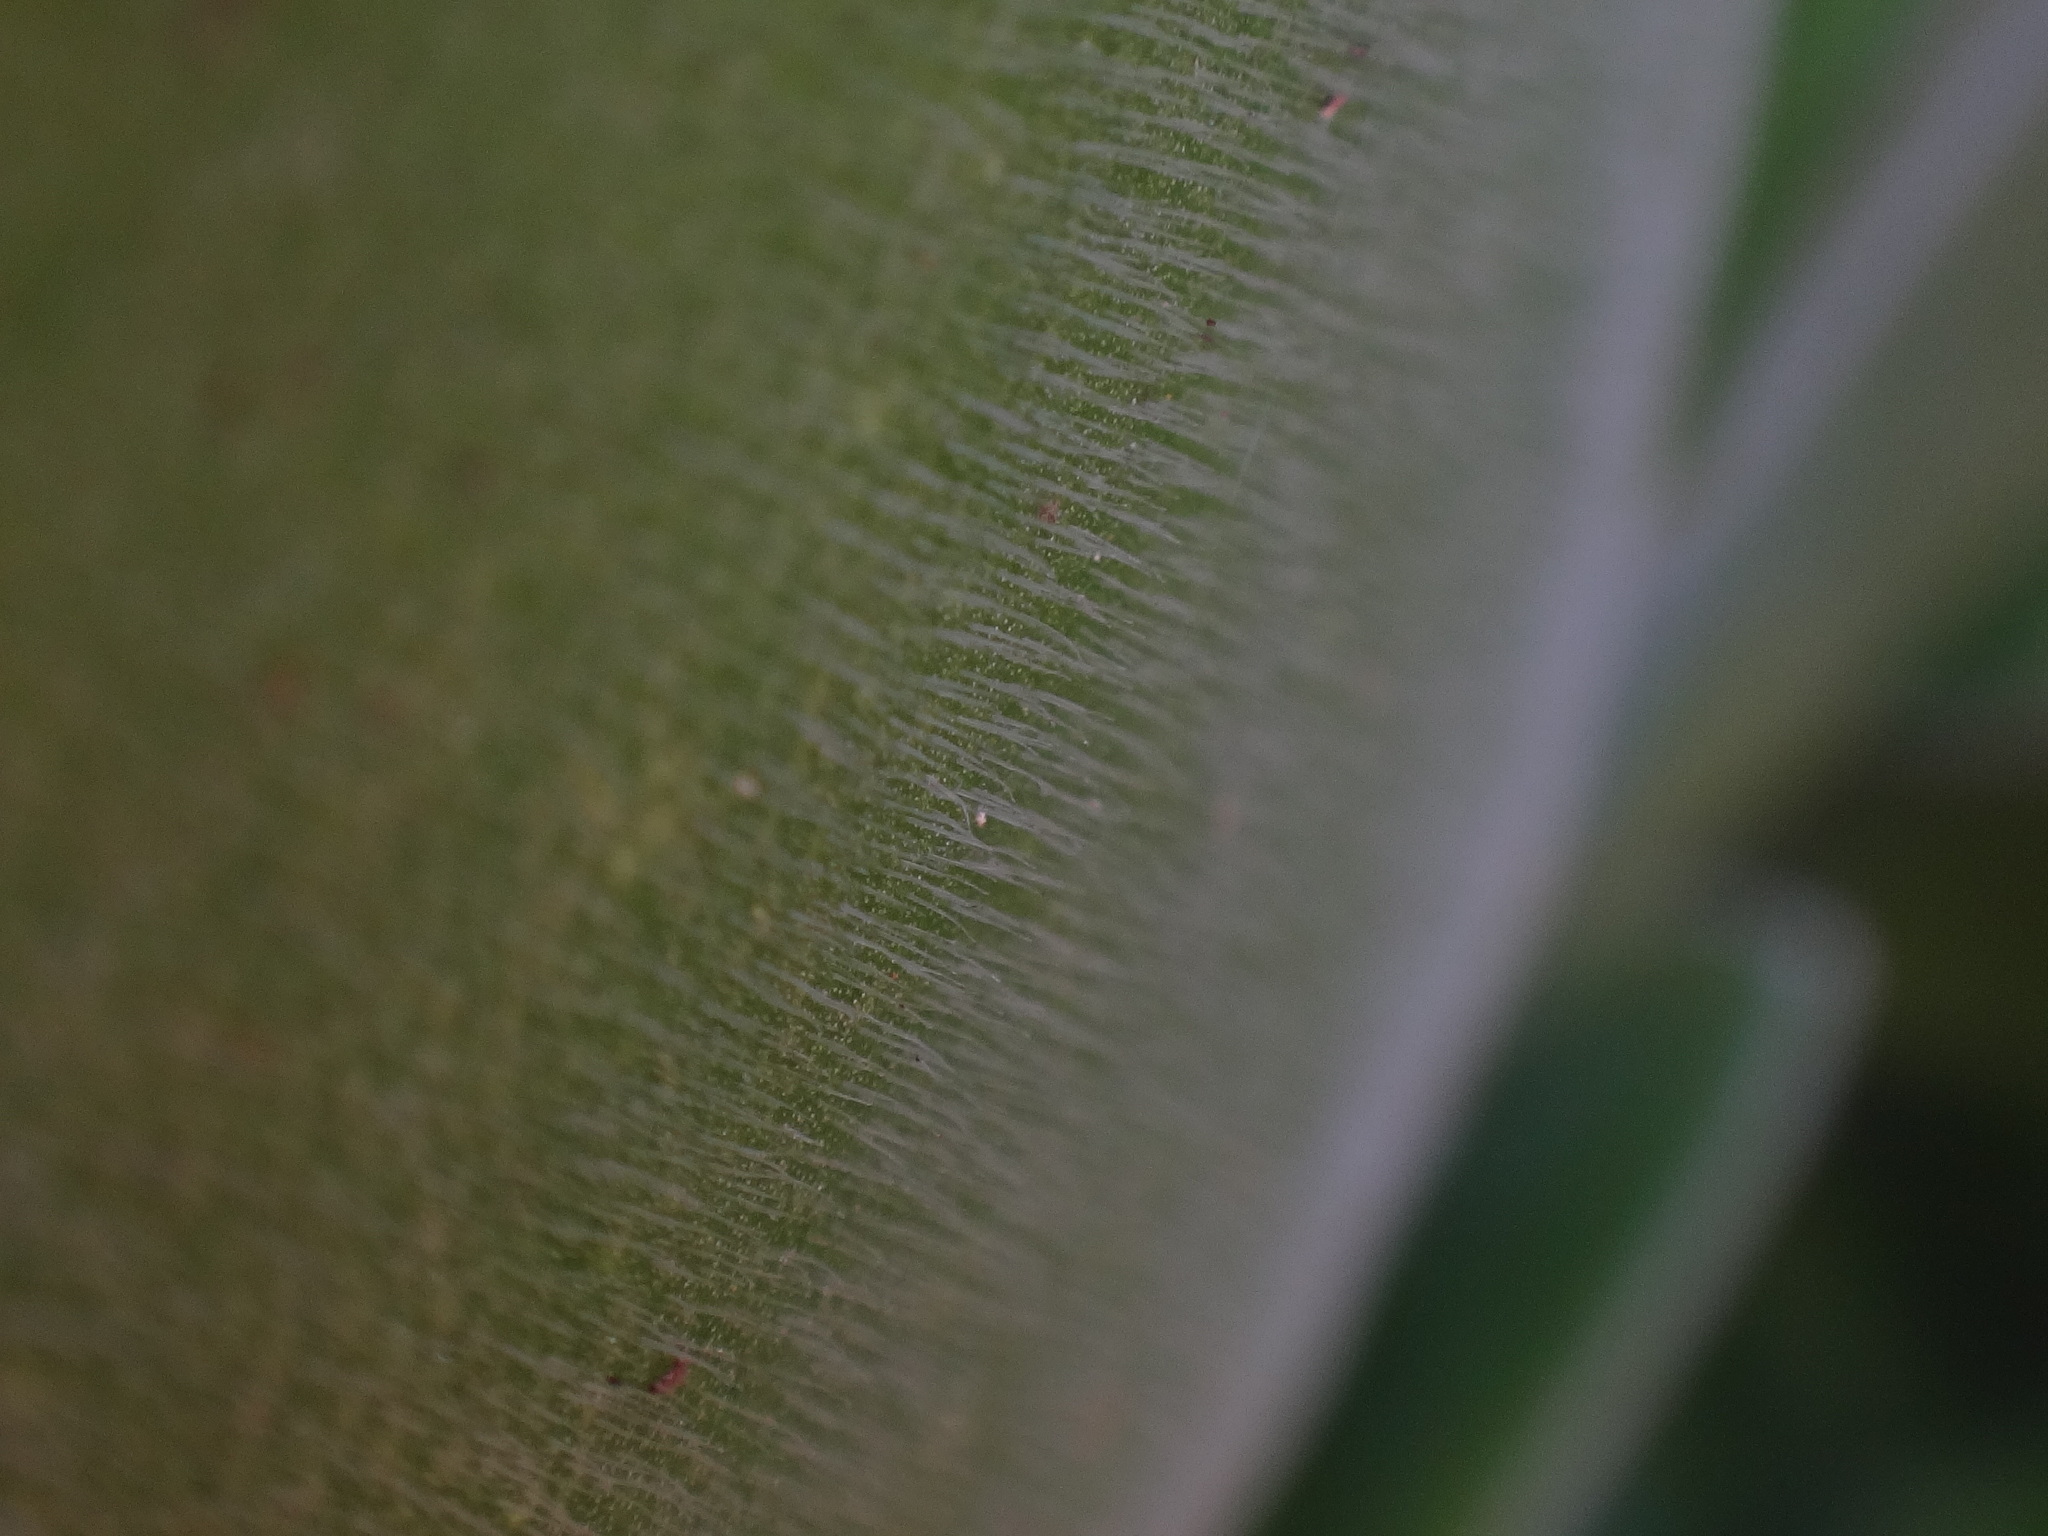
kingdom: Plantae
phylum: Tracheophyta
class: Magnoliopsida
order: Saxifragales
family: Crassulaceae
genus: Aeonium
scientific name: Aeonium canariense
